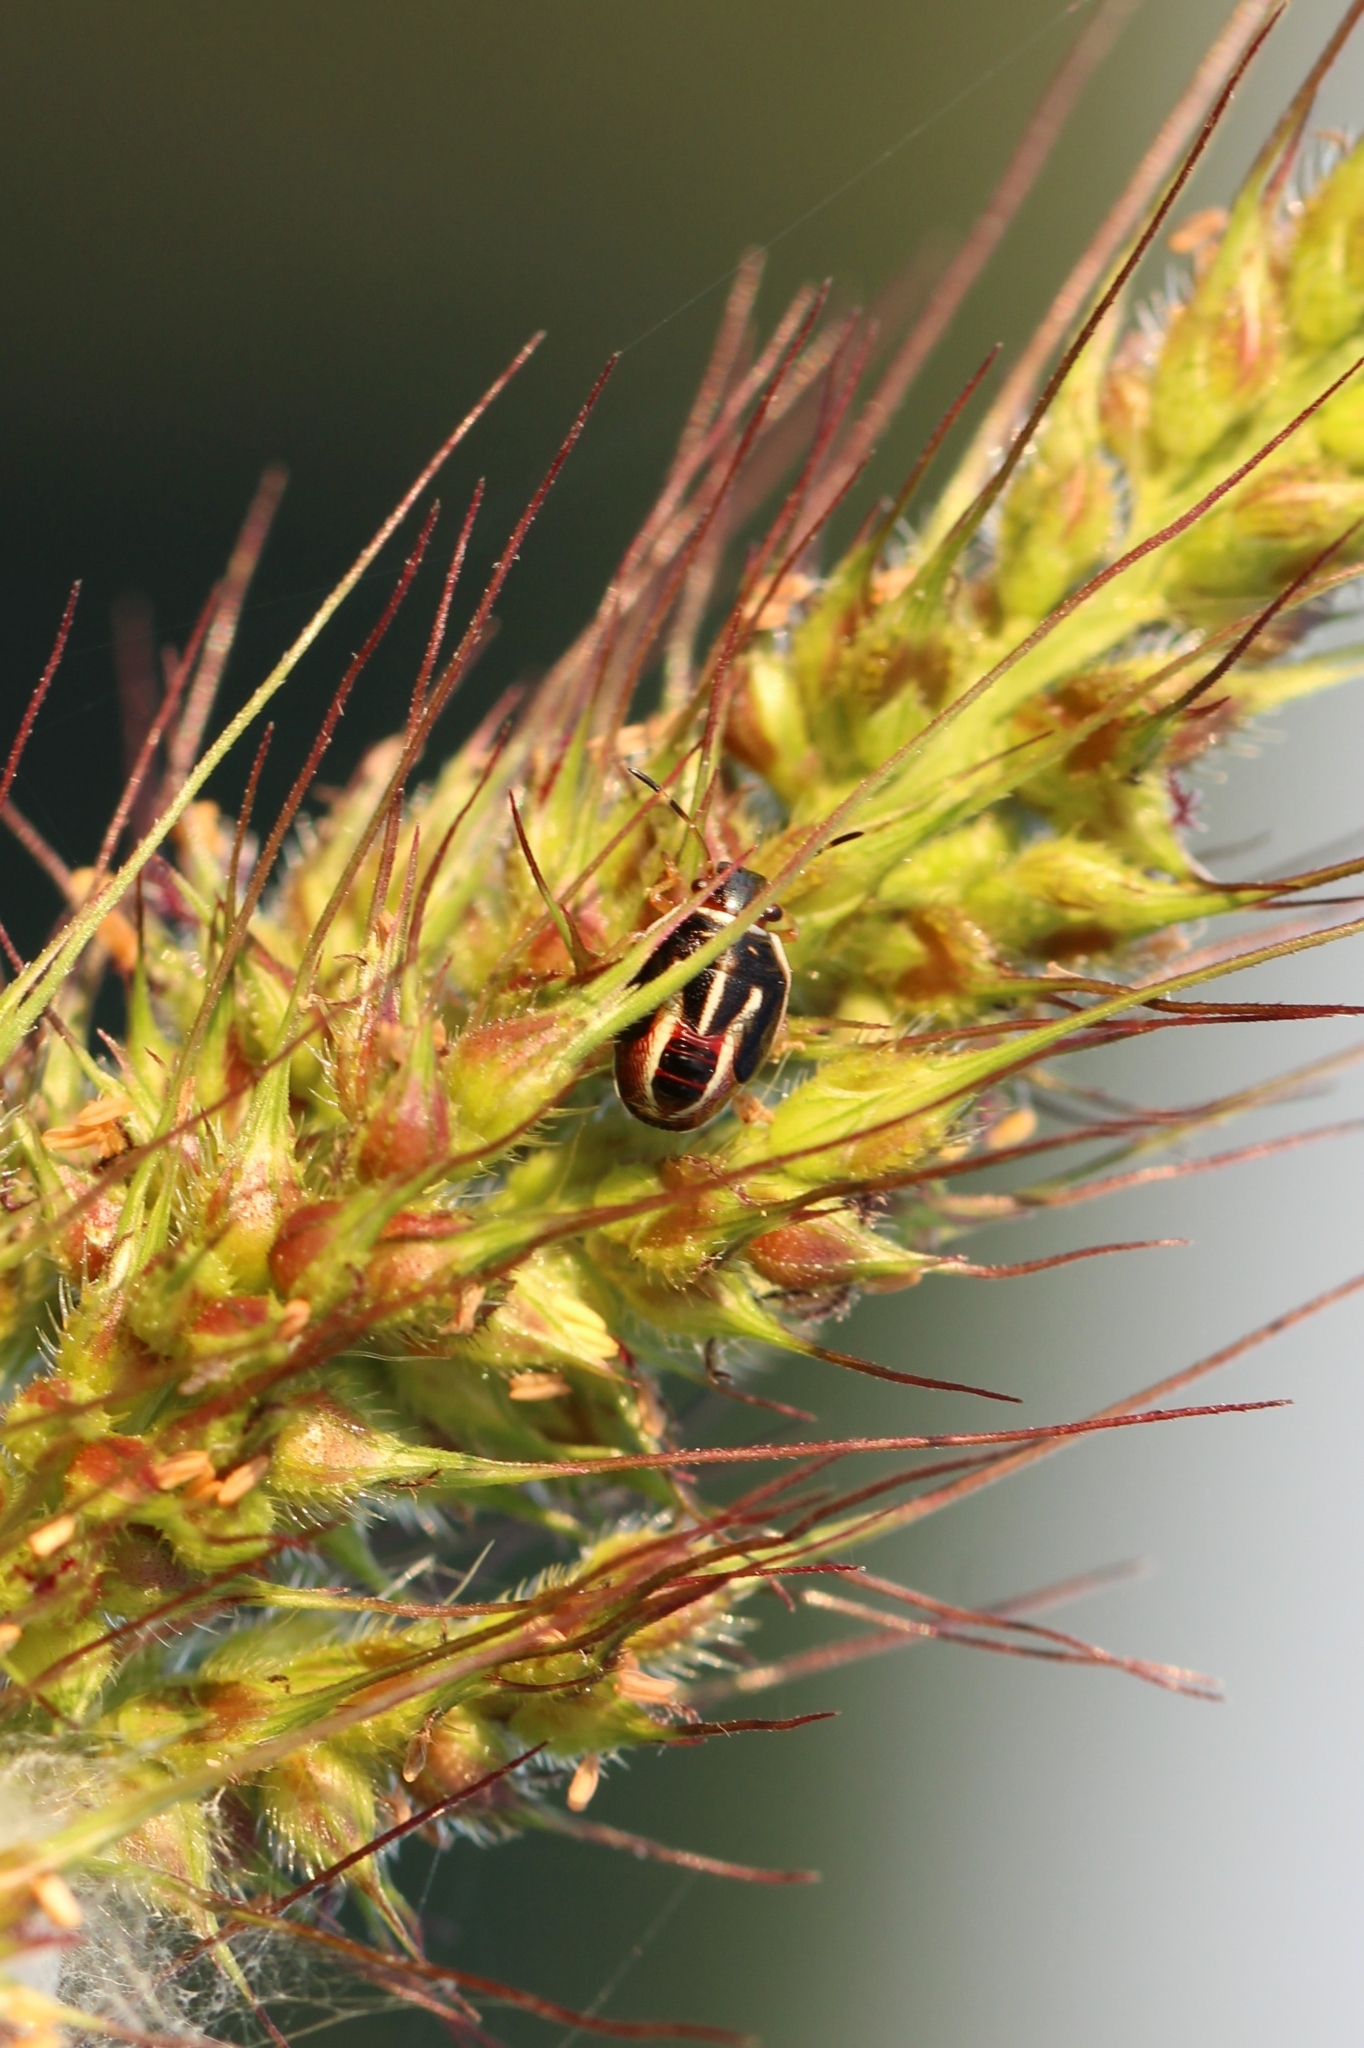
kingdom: Animalia
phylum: Arthropoda
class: Insecta
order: Hemiptera
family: Pentatomidae
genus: Mormidea
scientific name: Mormidea lugens
